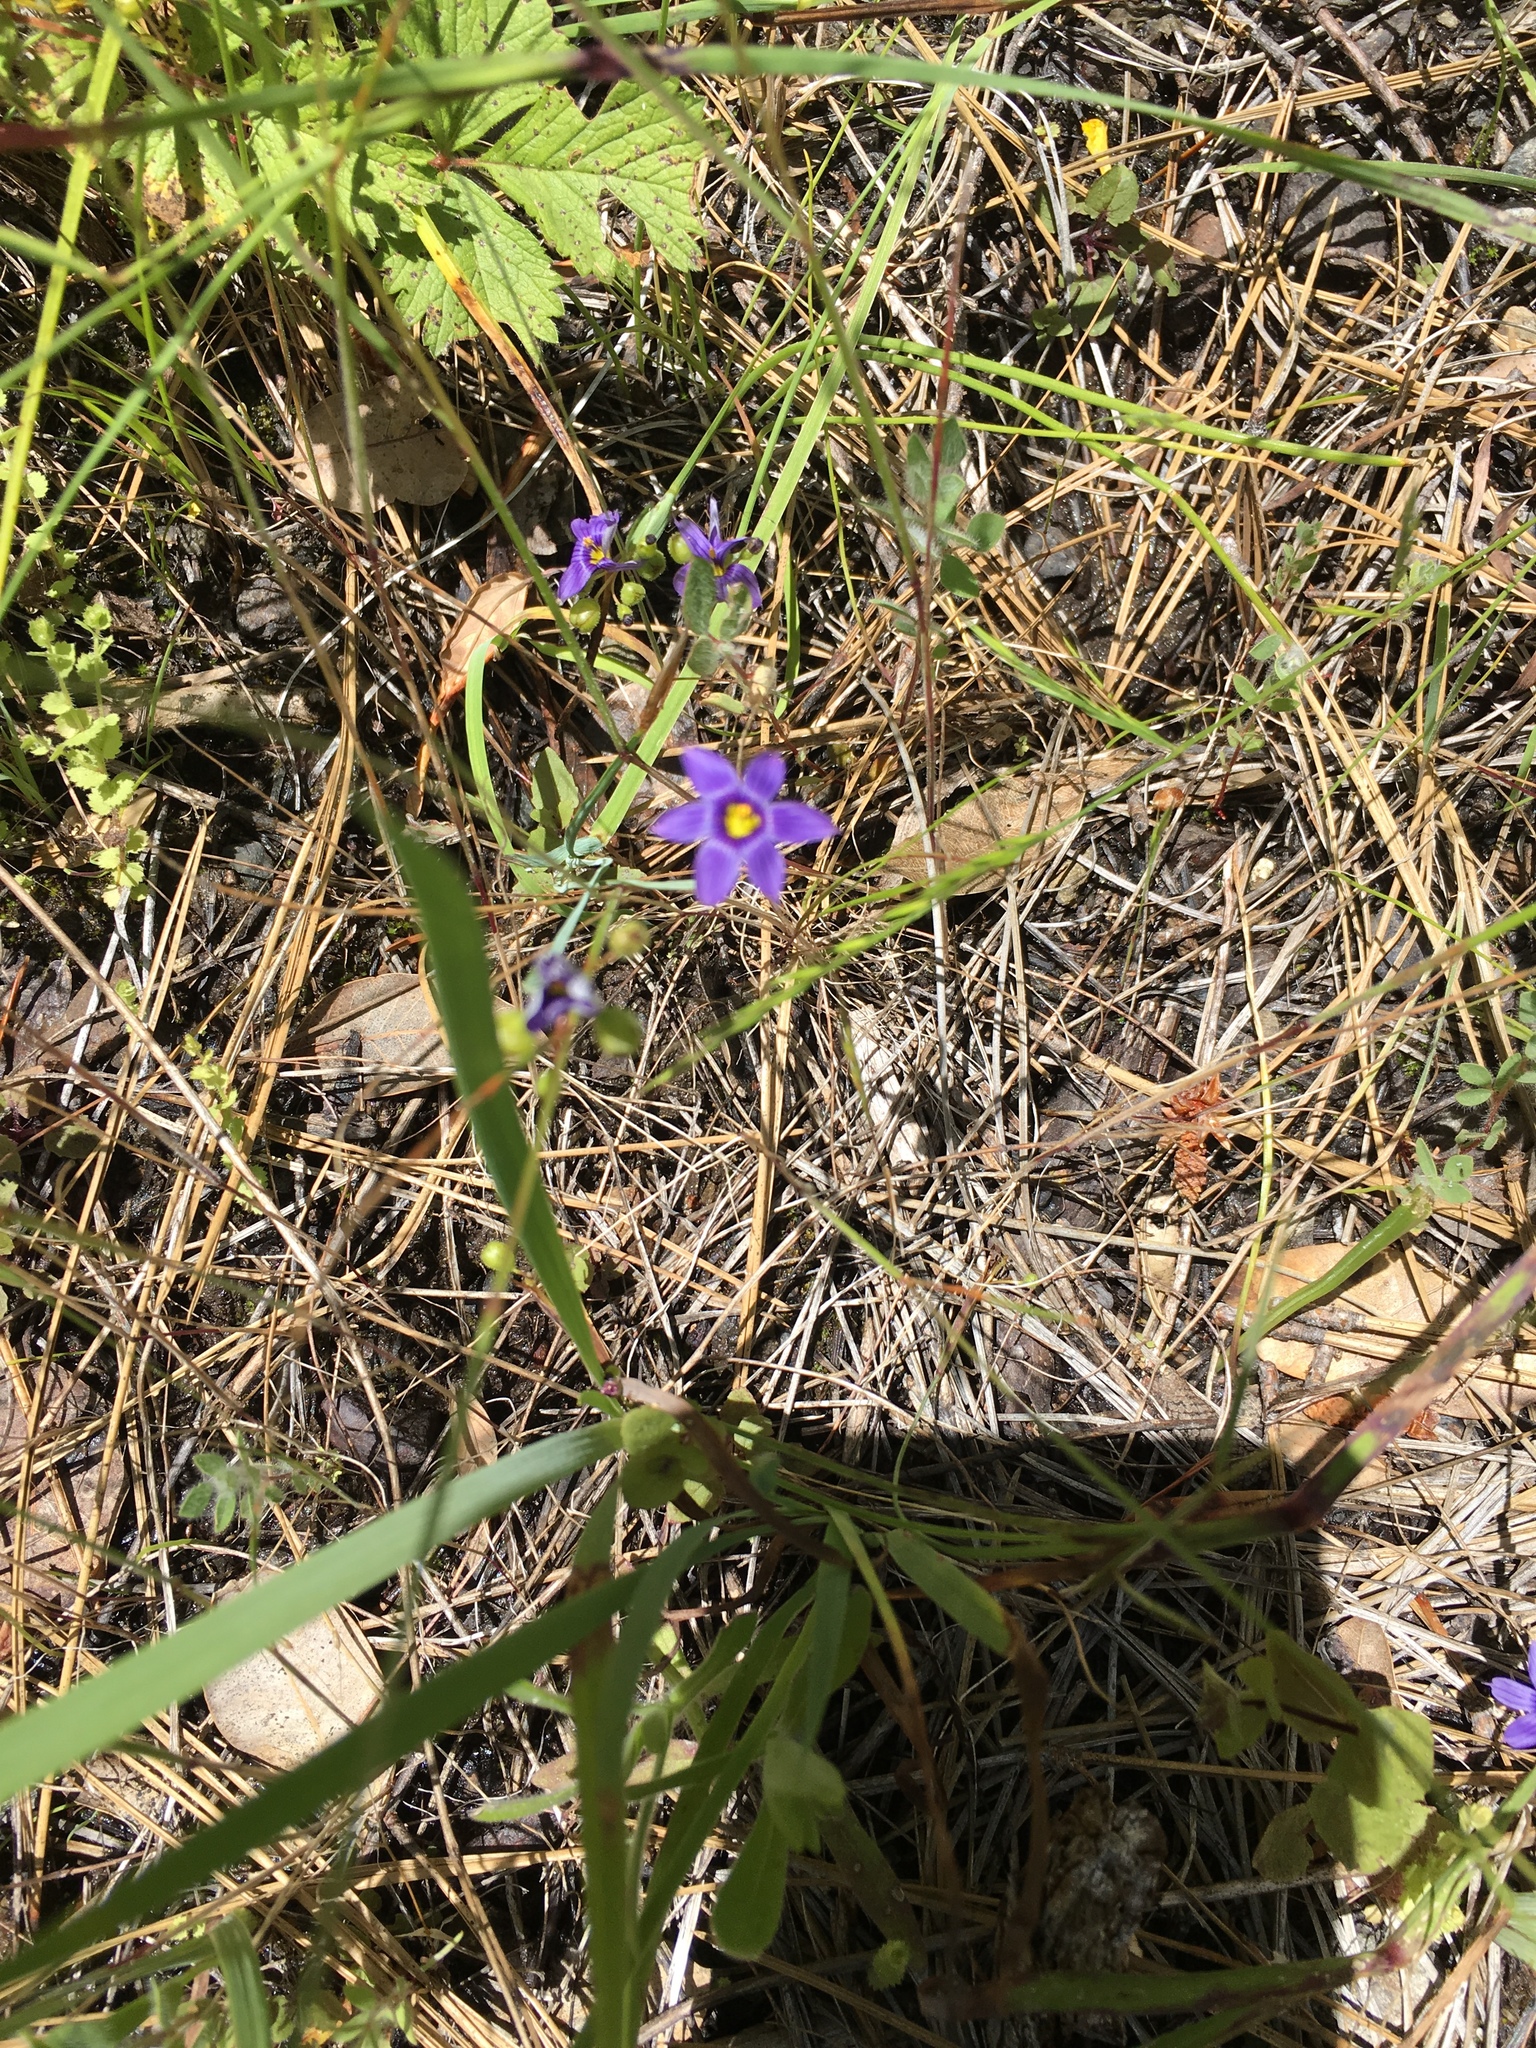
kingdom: Plantae
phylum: Tracheophyta
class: Liliopsida
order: Asparagales
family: Iridaceae
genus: Sisyrinchium
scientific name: Sisyrinchium bellum
